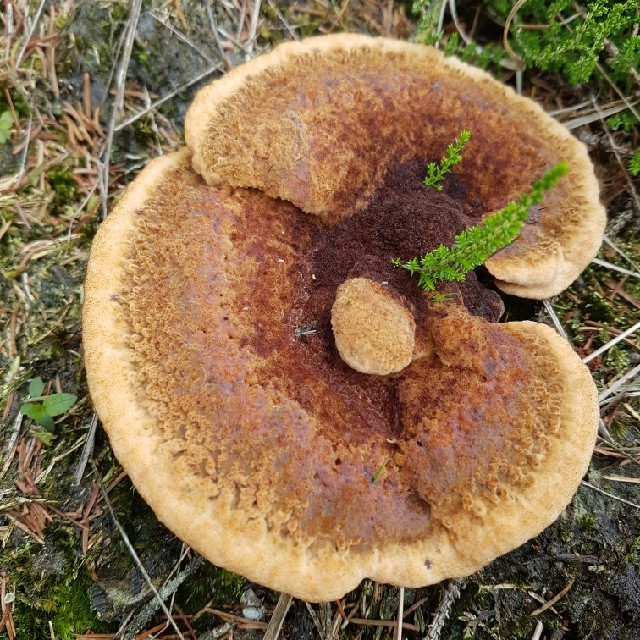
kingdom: Fungi
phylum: Basidiomycota
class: Agaricomycetes
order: Polyporales
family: Laetiporaceae
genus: Phaeolus
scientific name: Phaeolus schweinitzii
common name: Dyer's mazegill
